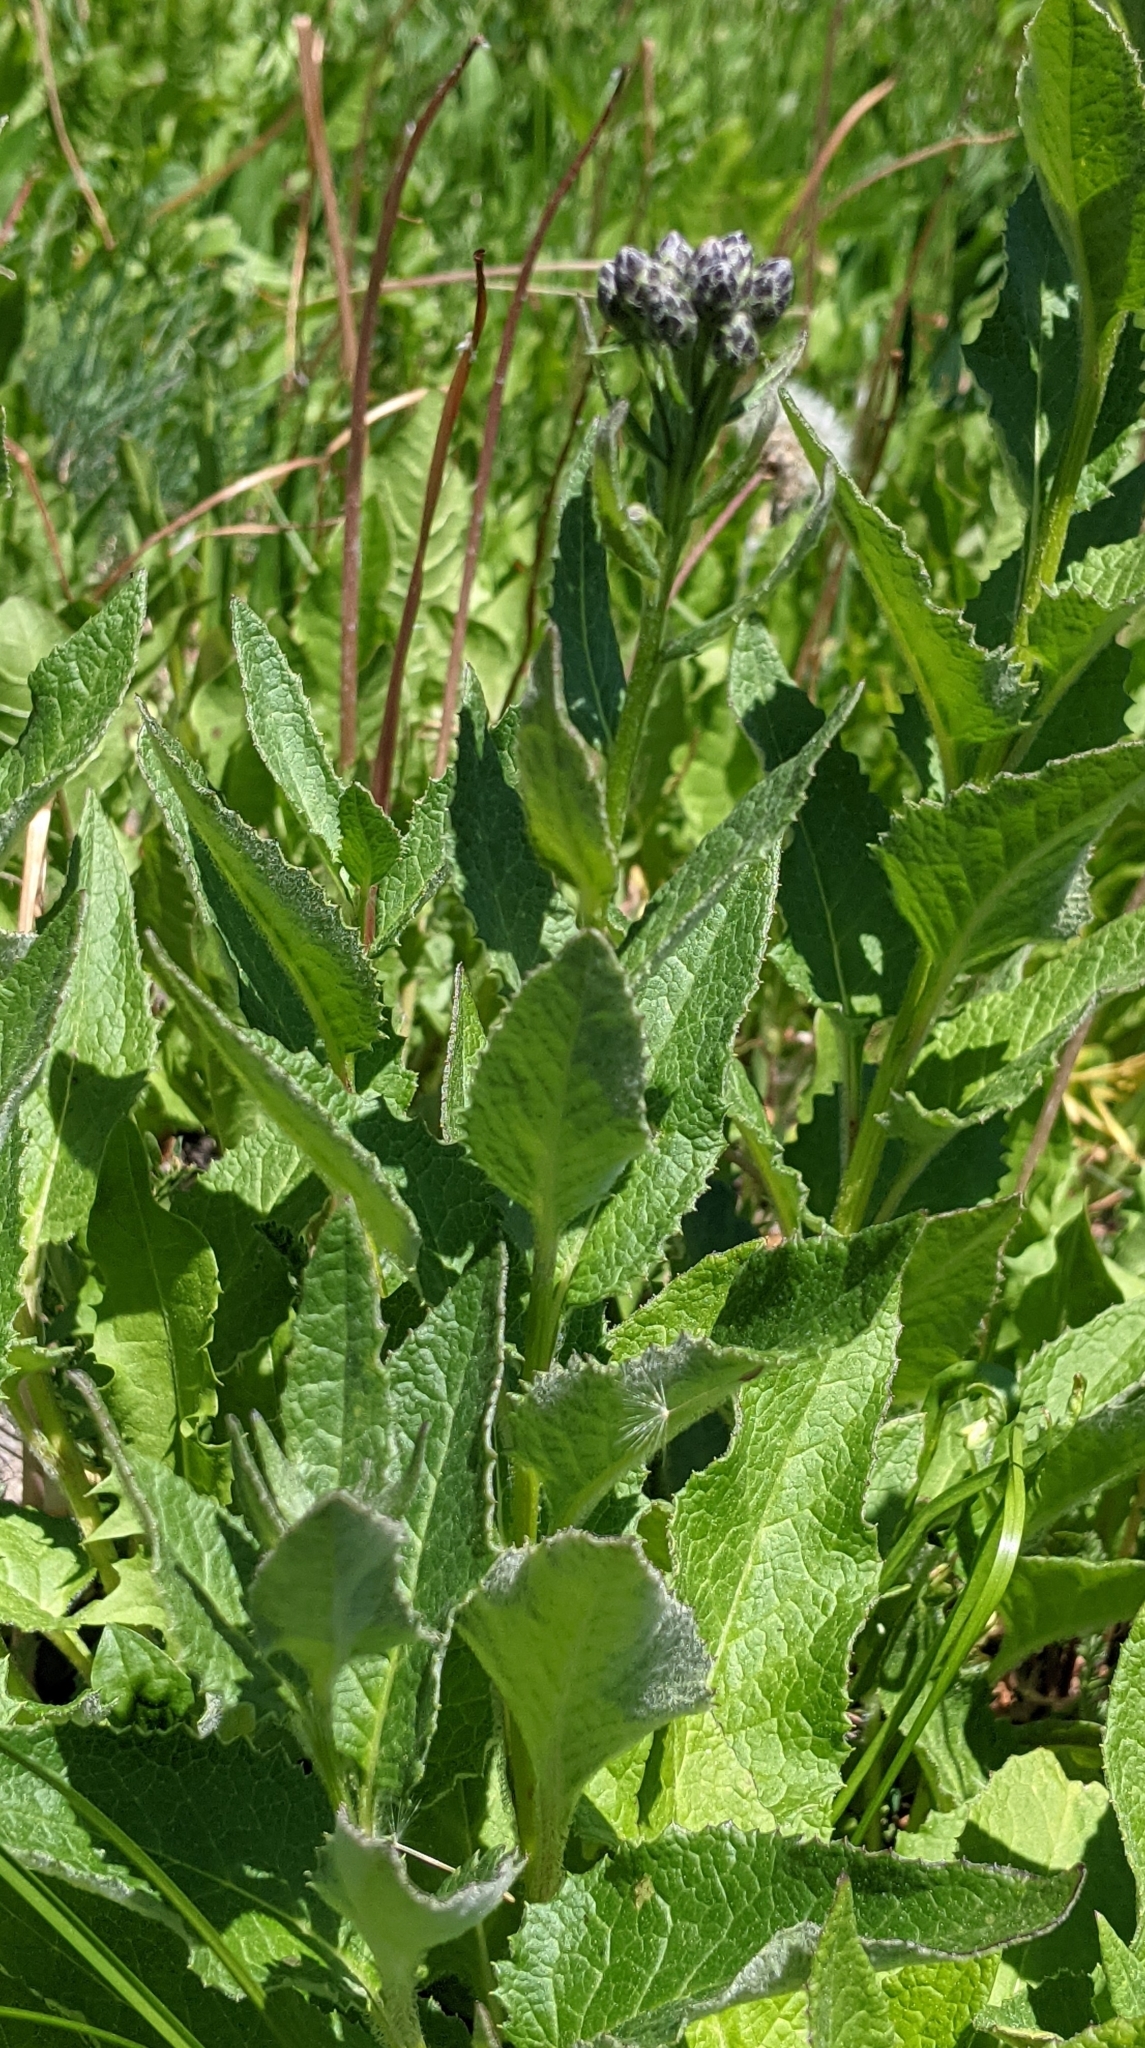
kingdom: Plantae
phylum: Tracheophyta
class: Magnoliopsida
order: Asterales
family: Asteraceae
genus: Saussurea
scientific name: Saussurea americana
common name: American saw-wort
